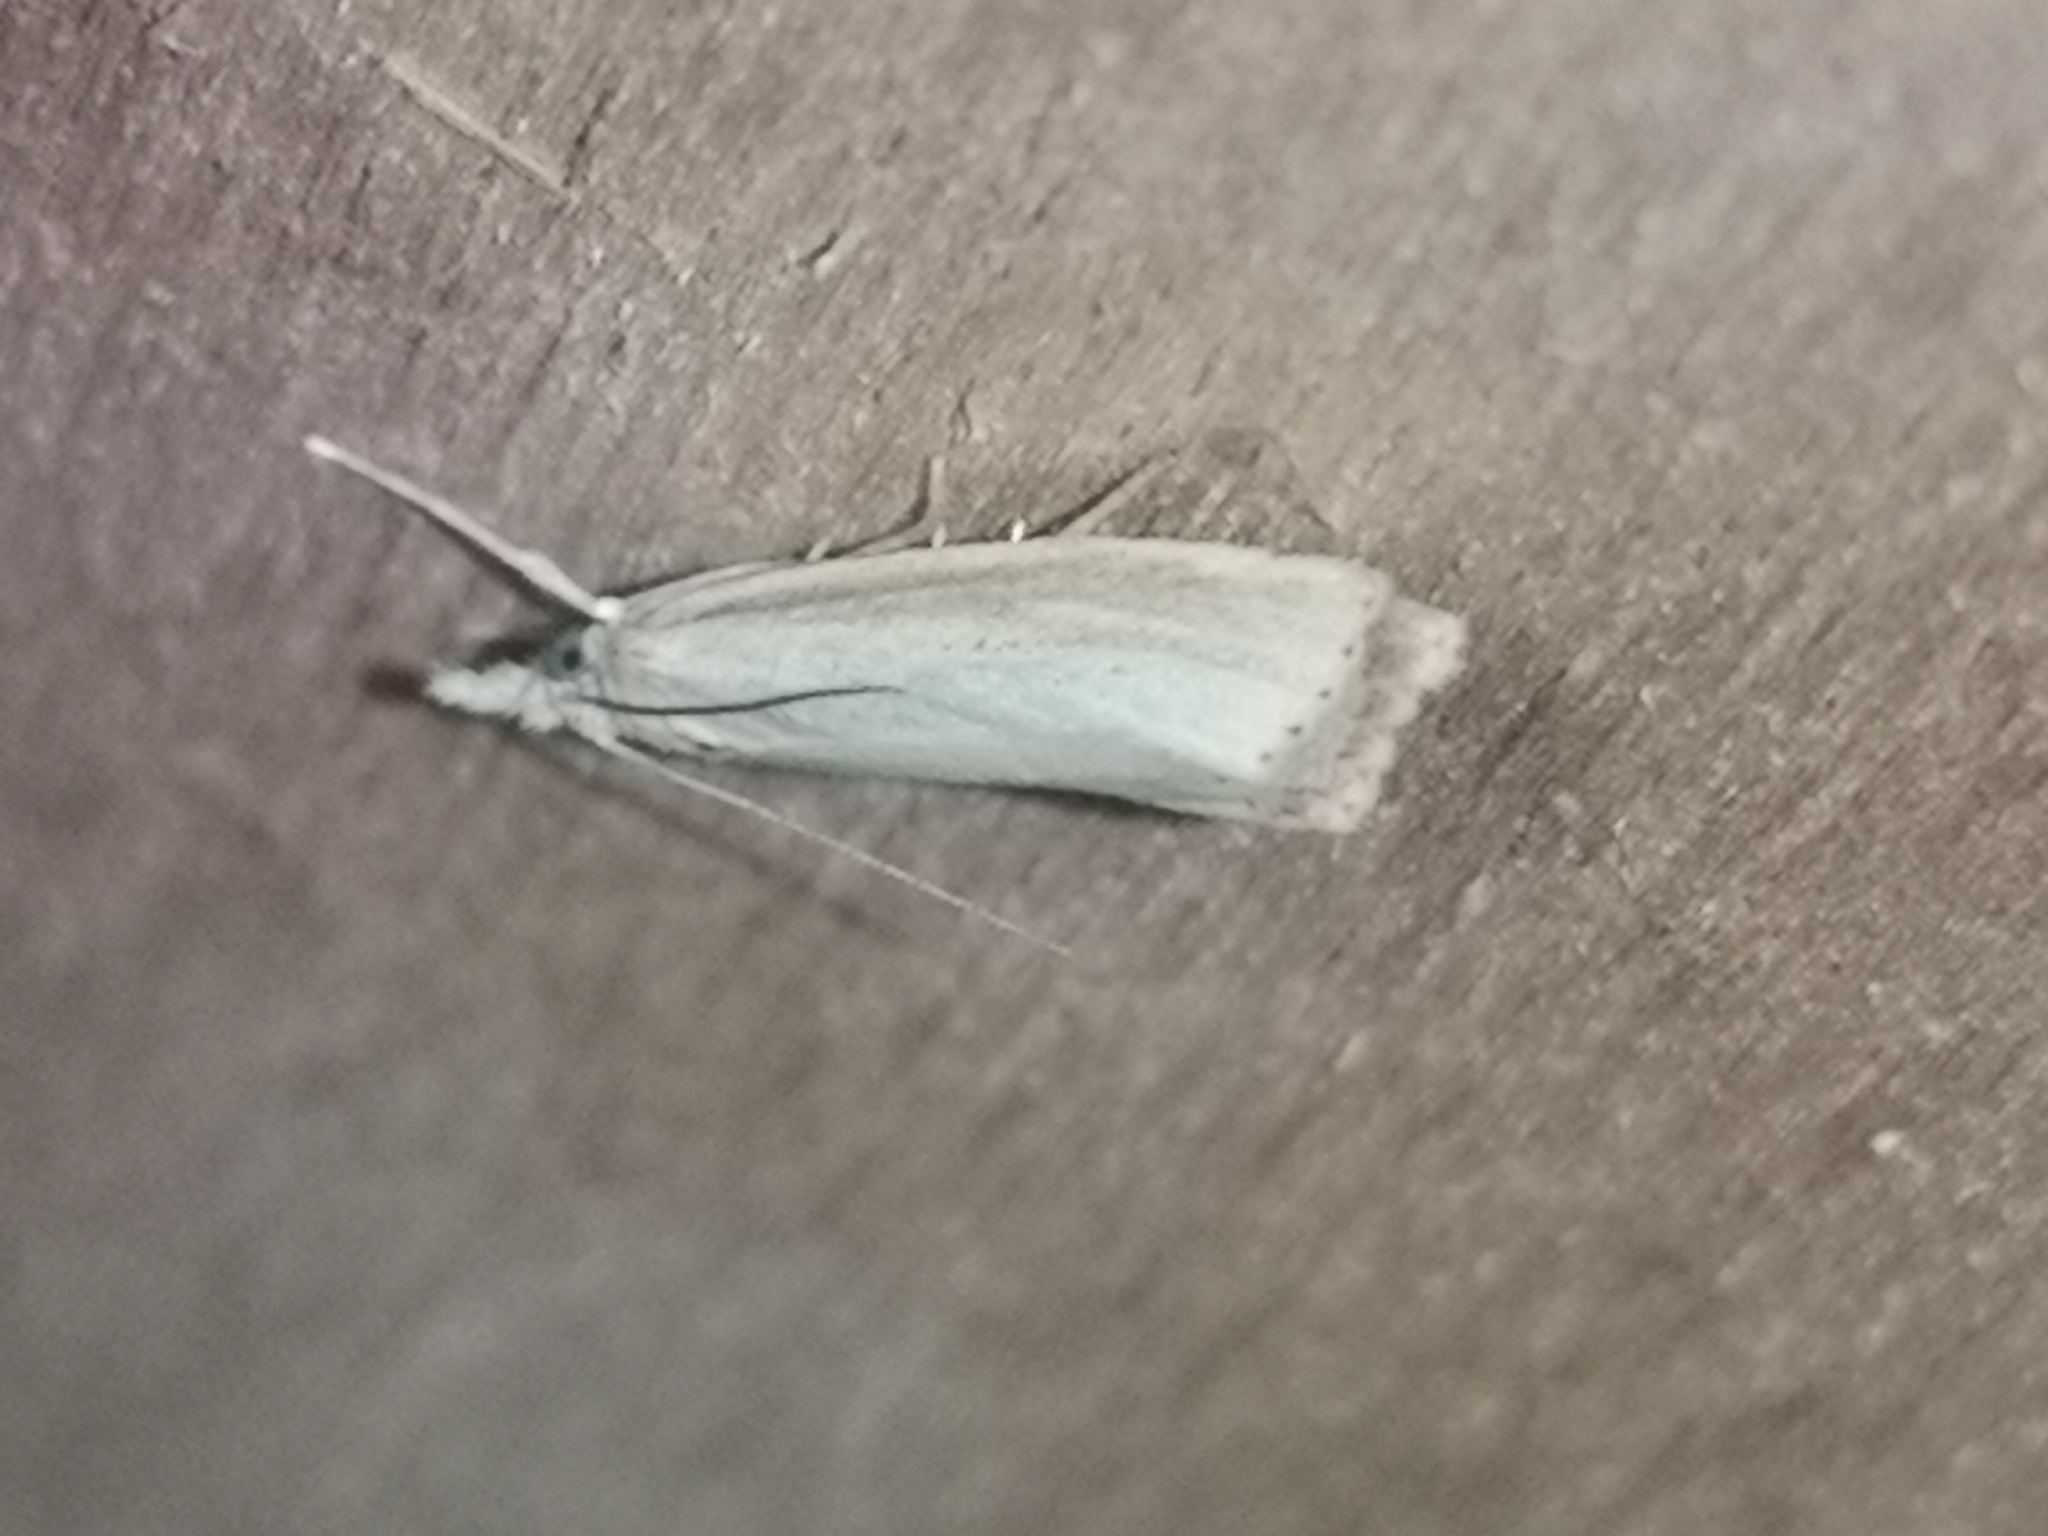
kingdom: Animalia
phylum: Arthropoda
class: Insecta
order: Lepidoptera
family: Crambidae
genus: Agriphila
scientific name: Agriphila straminella
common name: Straw grass-veneer
